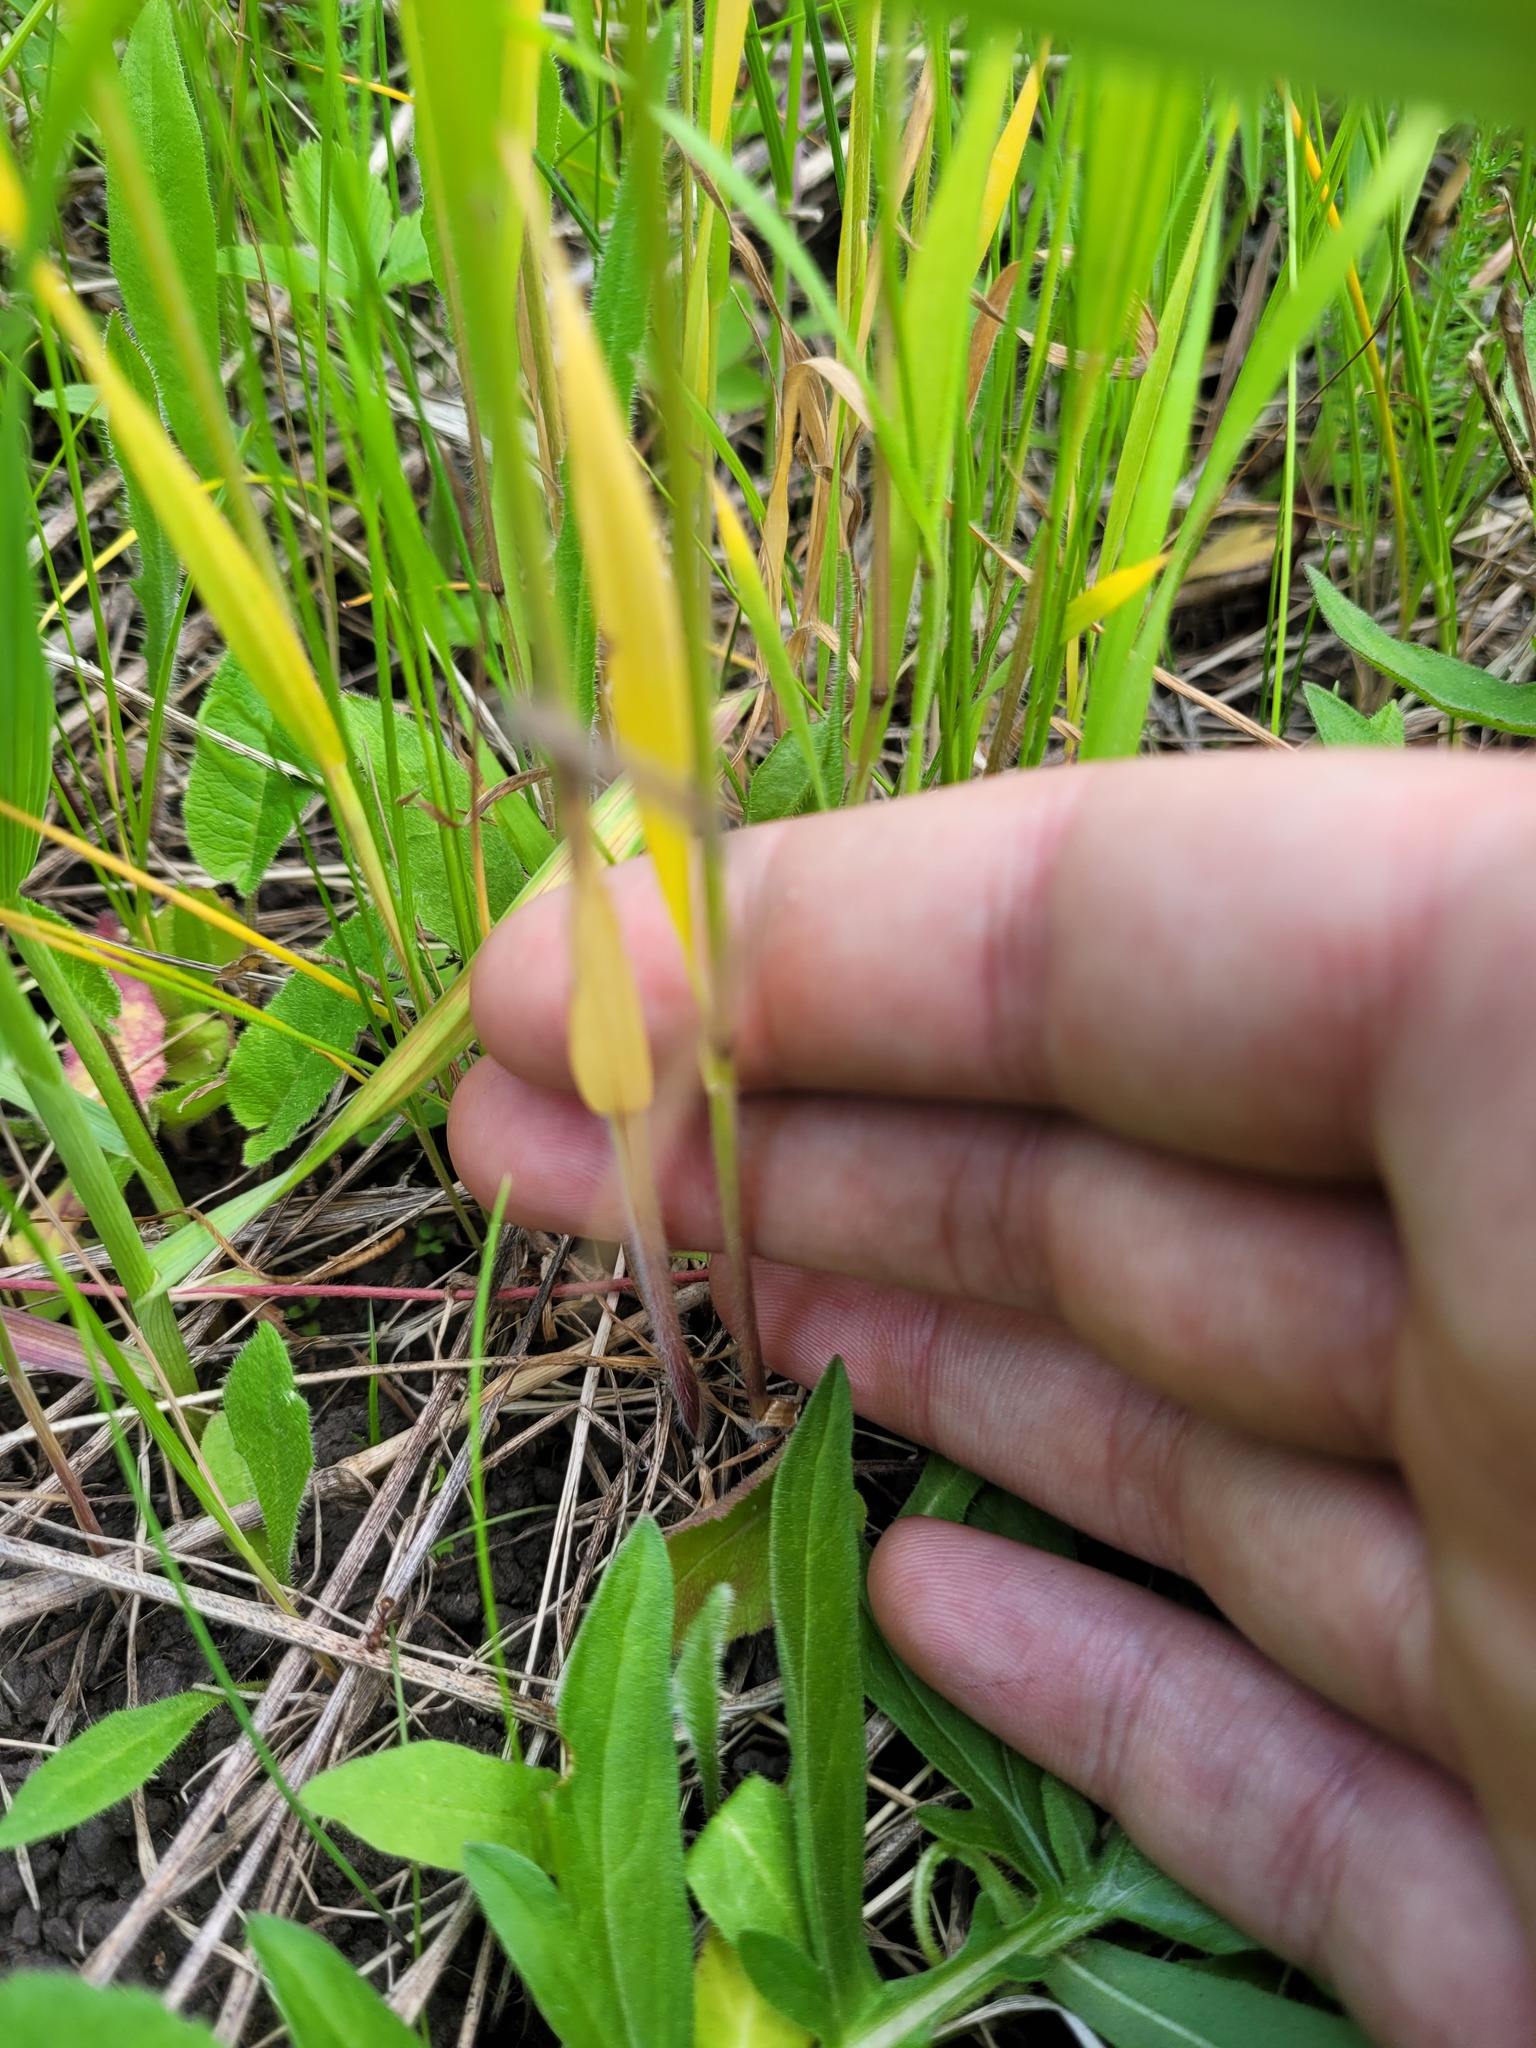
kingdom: Plantae
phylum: Tracheophyta
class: Liliopsida
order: Poales
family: Poaceae
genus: Trisetum
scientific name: Trisetum flavescens
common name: Yellow oat-grass
